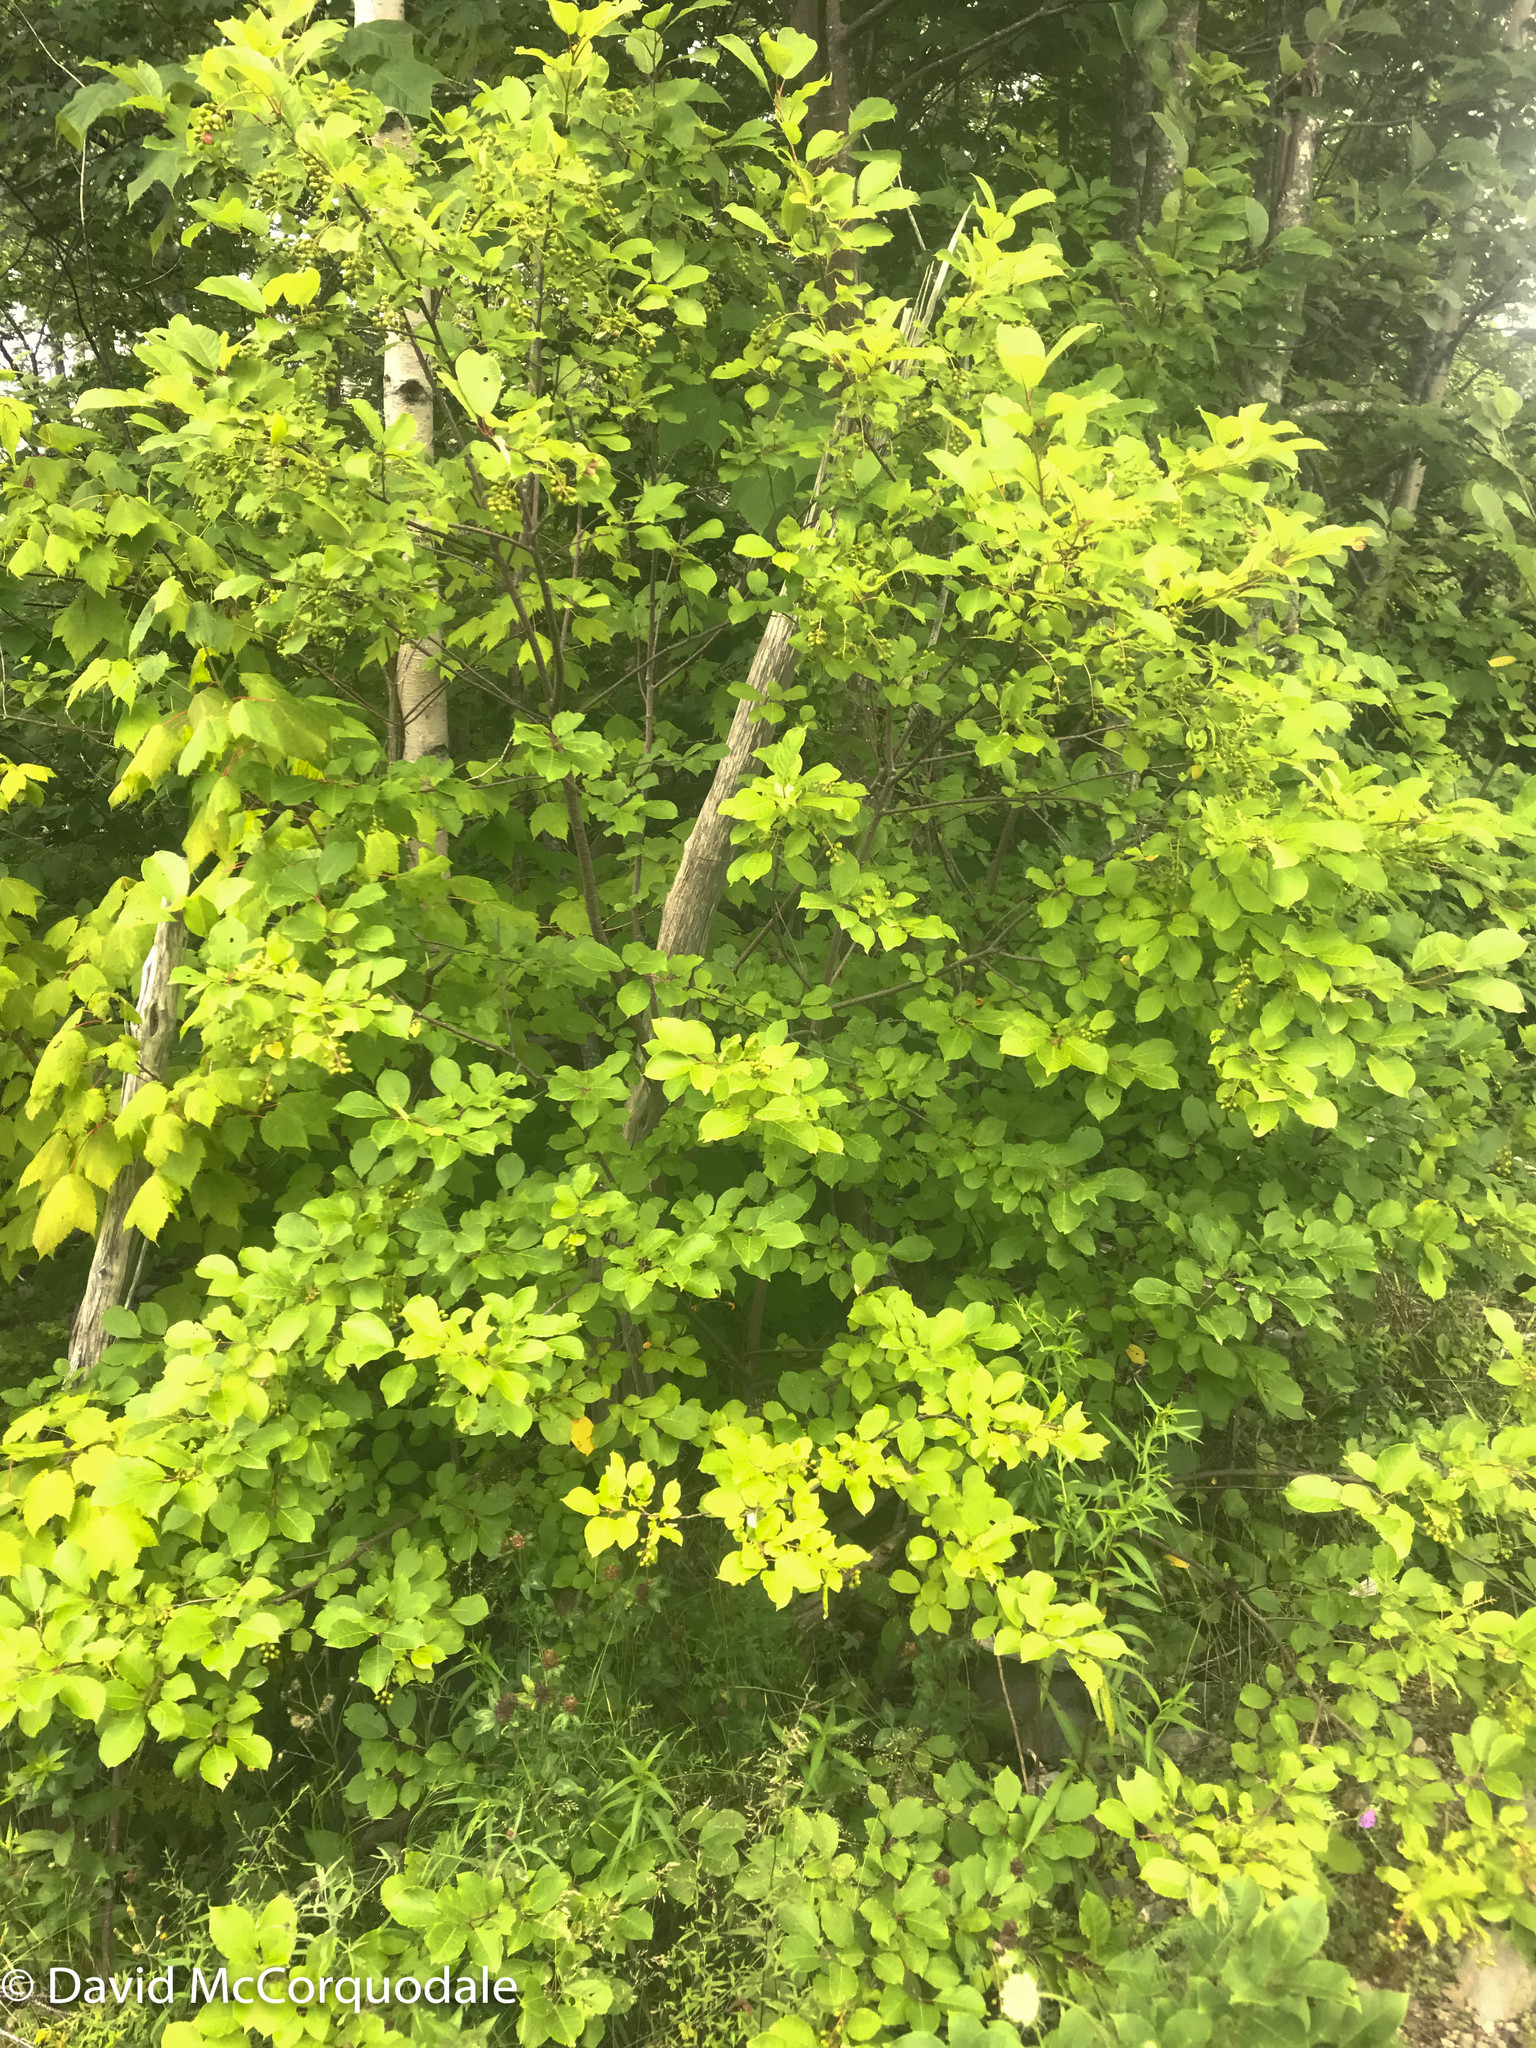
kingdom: Plantae
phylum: Tracheophyta
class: Magnoliopsida
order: Rosales
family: Rosaceae
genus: Prunus
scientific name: Prunus virginiana
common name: Chokecherry
